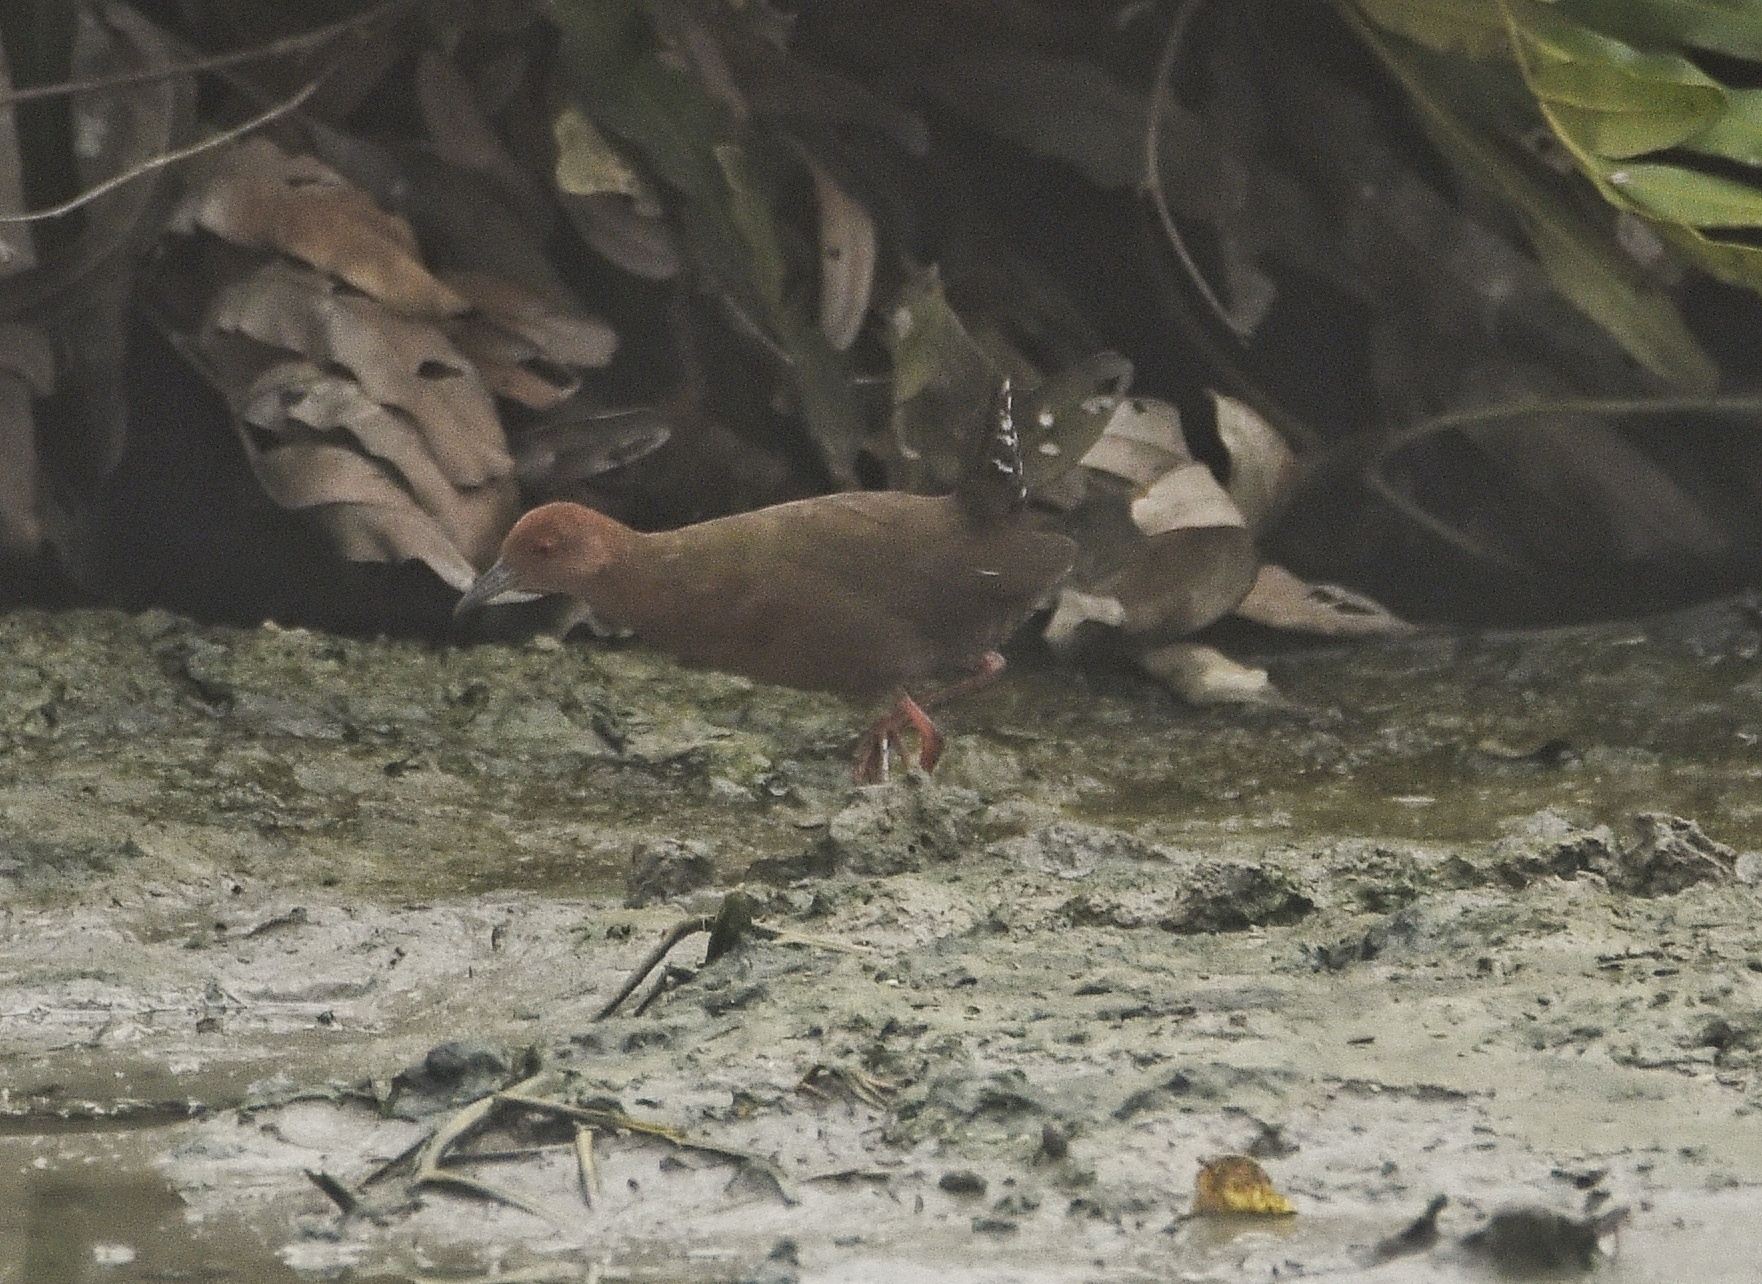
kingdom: Animalia
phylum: Chordata
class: Aves
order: Gruiformes
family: Rallidae
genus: Porzana
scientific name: Porzana fusca
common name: Ruddy-breasted crake
